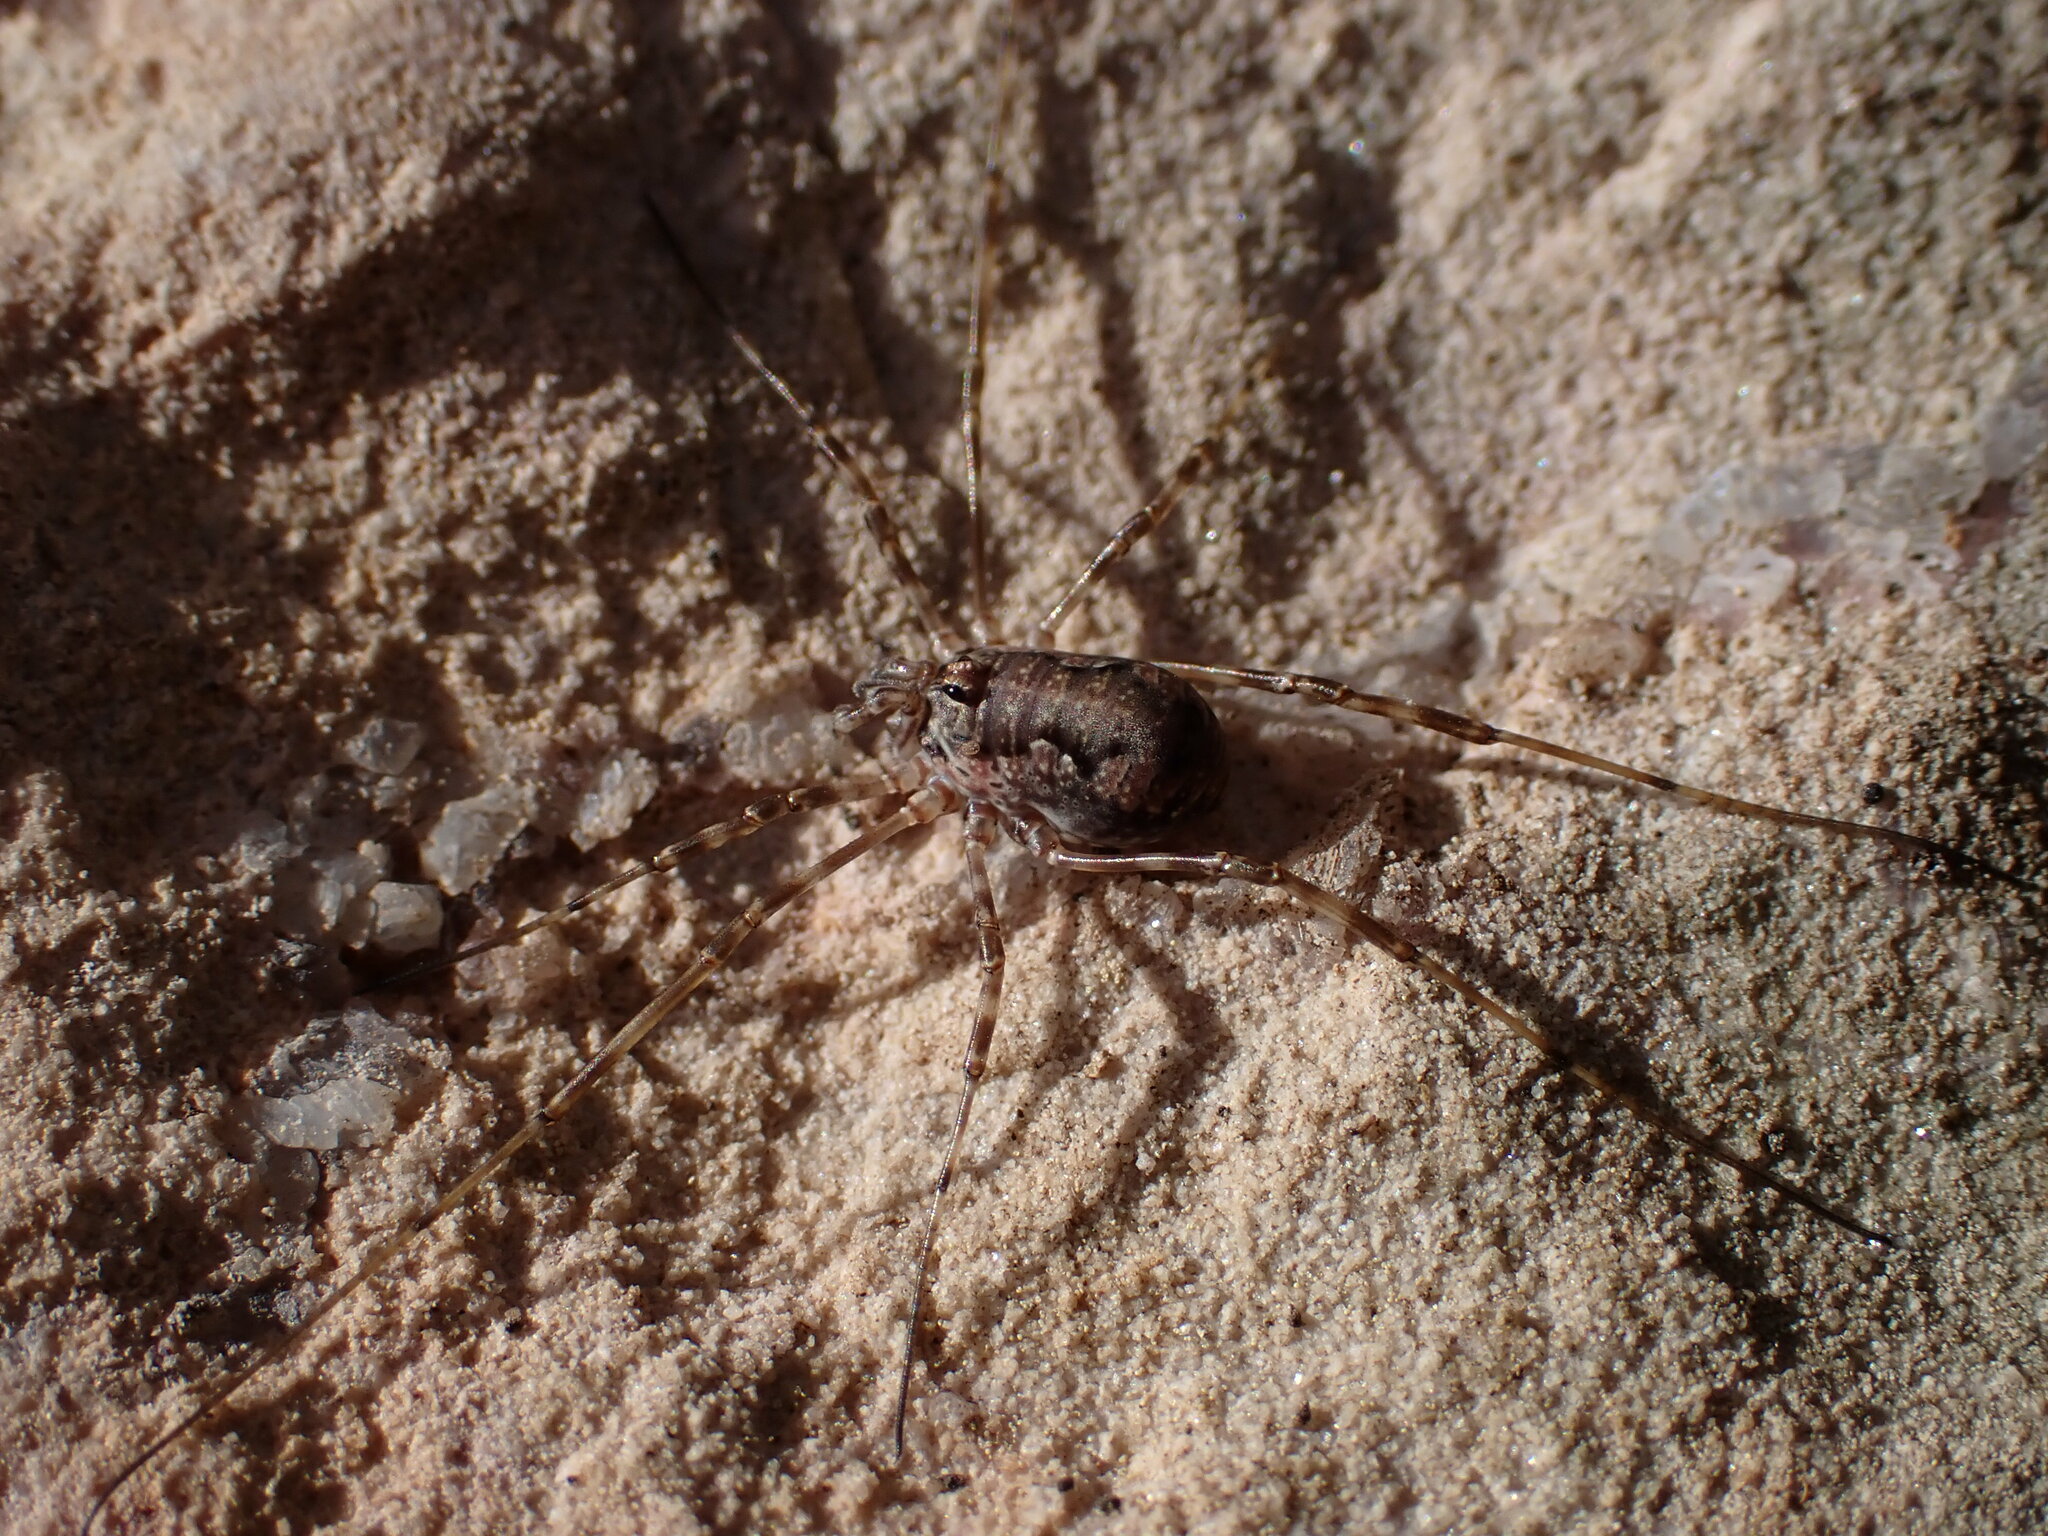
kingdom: Animalia
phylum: Arthropoda
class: Arachnida
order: Opiliones
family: Phalangiidae
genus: Dasylobus
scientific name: Dasylobus graniferus
